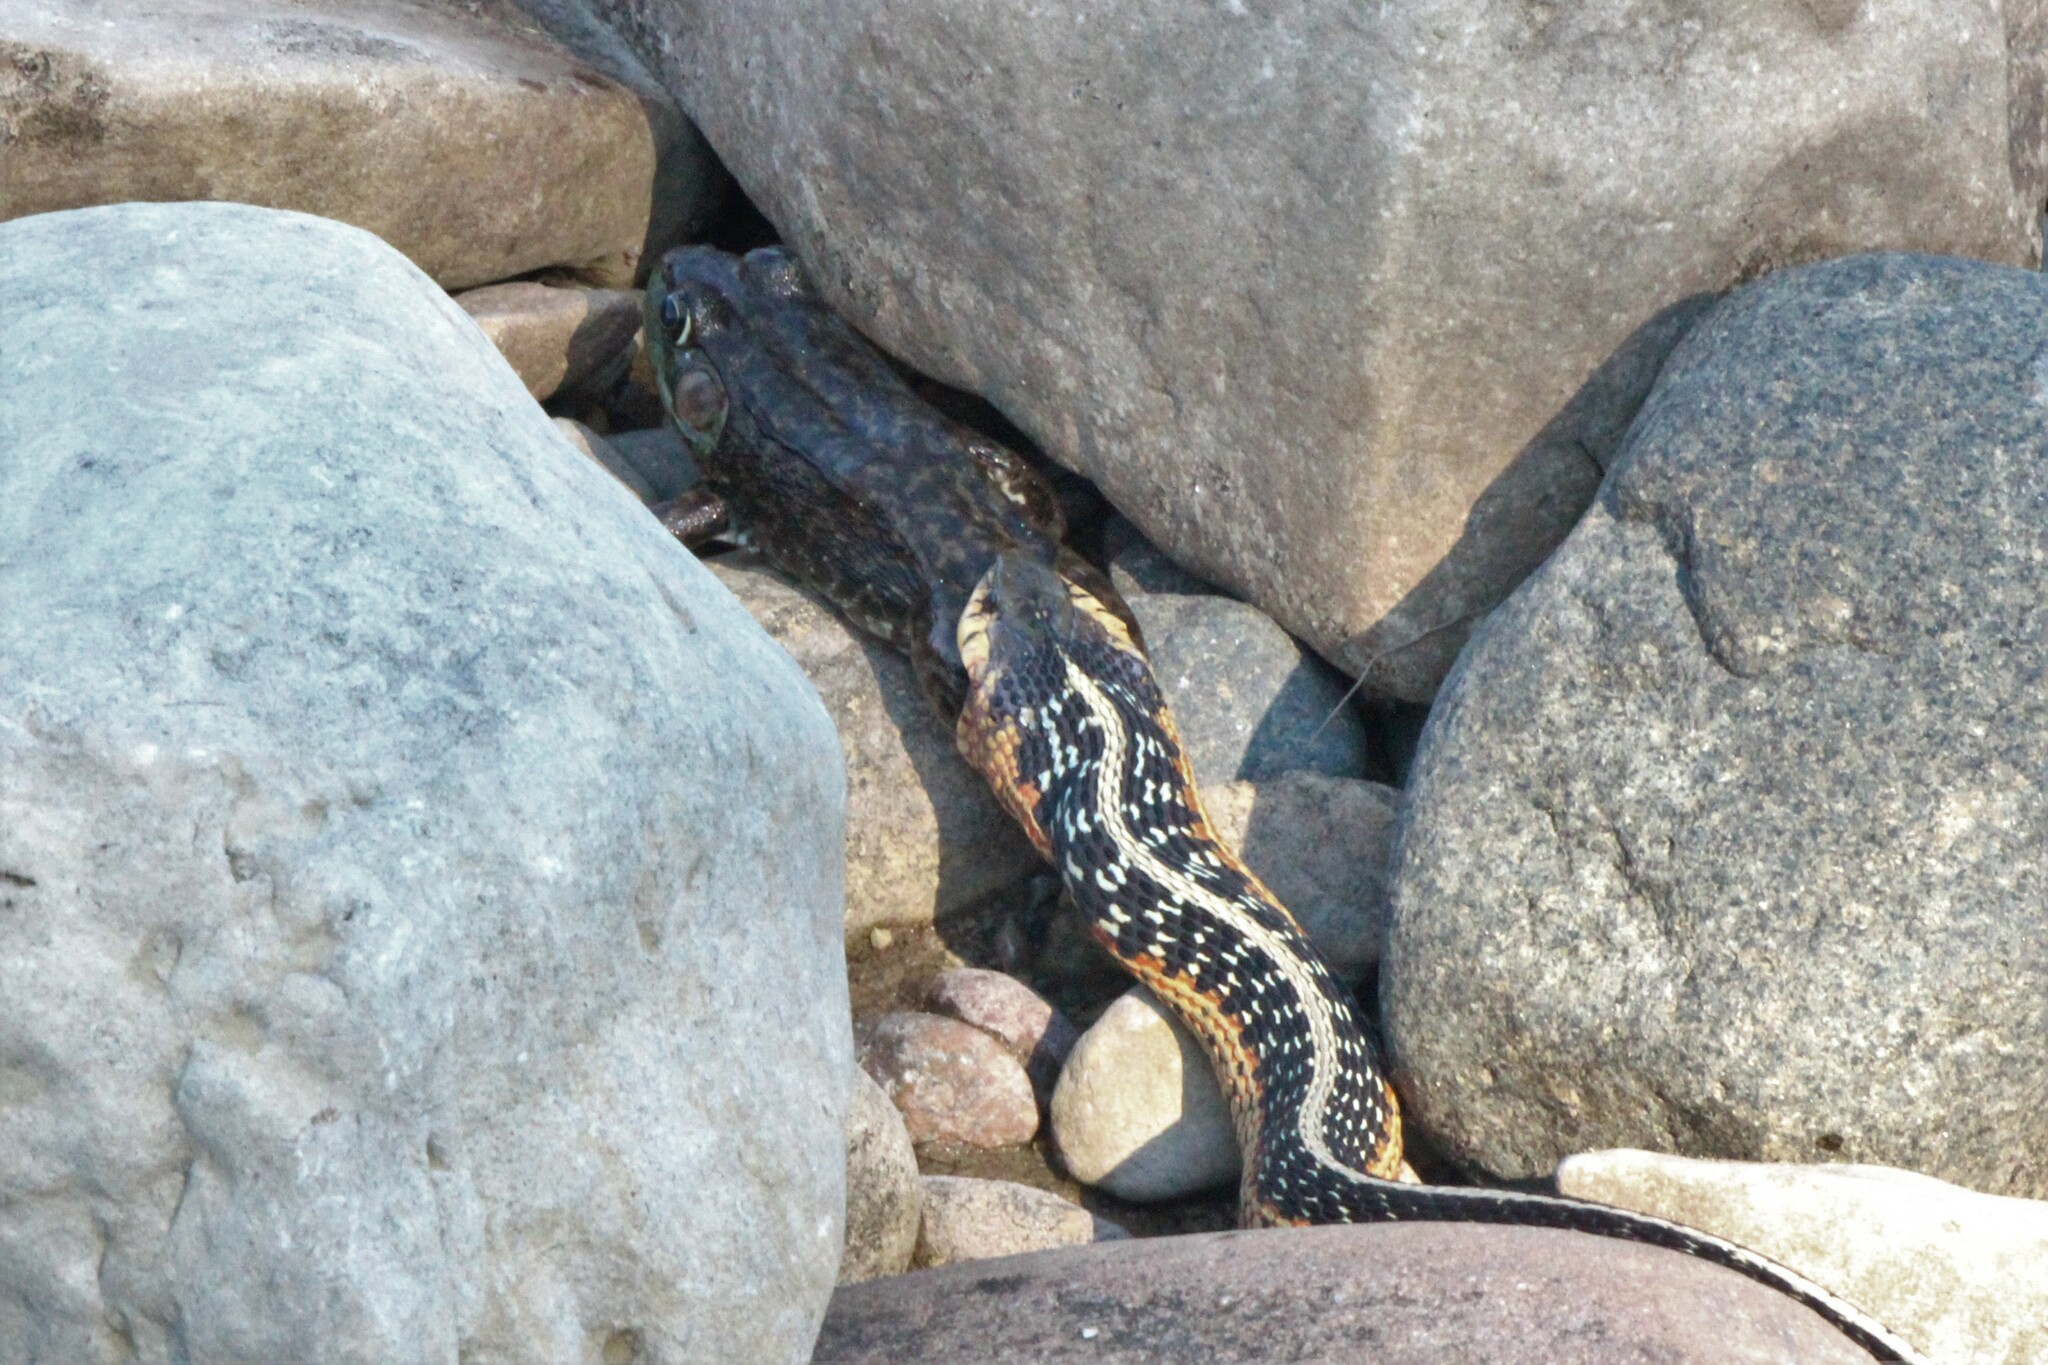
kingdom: Animalia
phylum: Chordata
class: Amphibia
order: Anura
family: Ranidae
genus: Lithobates
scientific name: Lithobates clamitans
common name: Green frog
